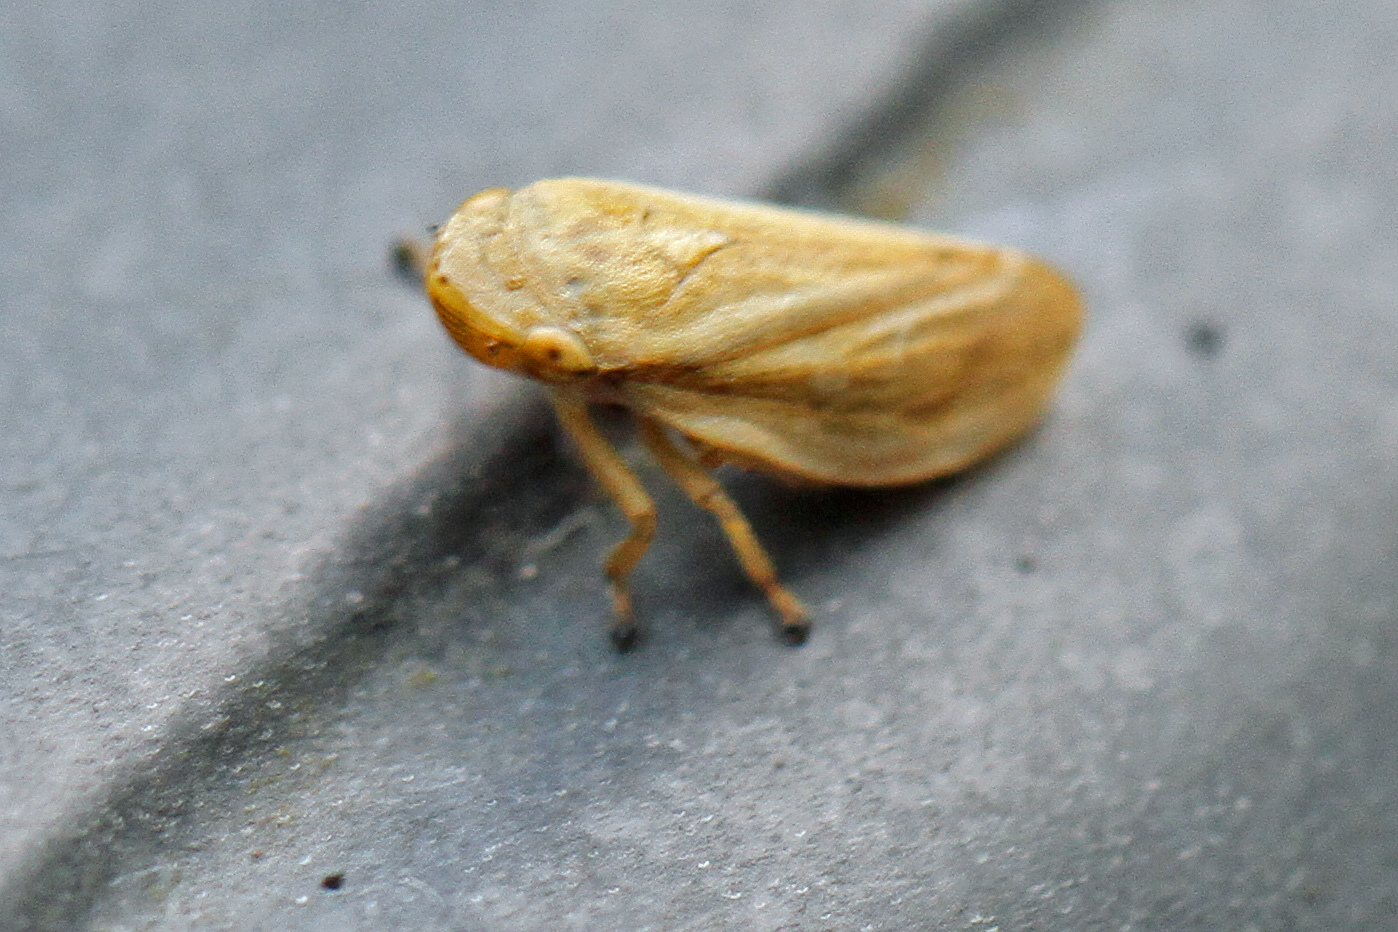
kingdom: Animalia
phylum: Arthropoda
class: Insecta
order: Hemiptera
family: Aphrophoridae
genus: Philaenus
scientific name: Philaenus spumarius
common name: Meadow spittlebug
